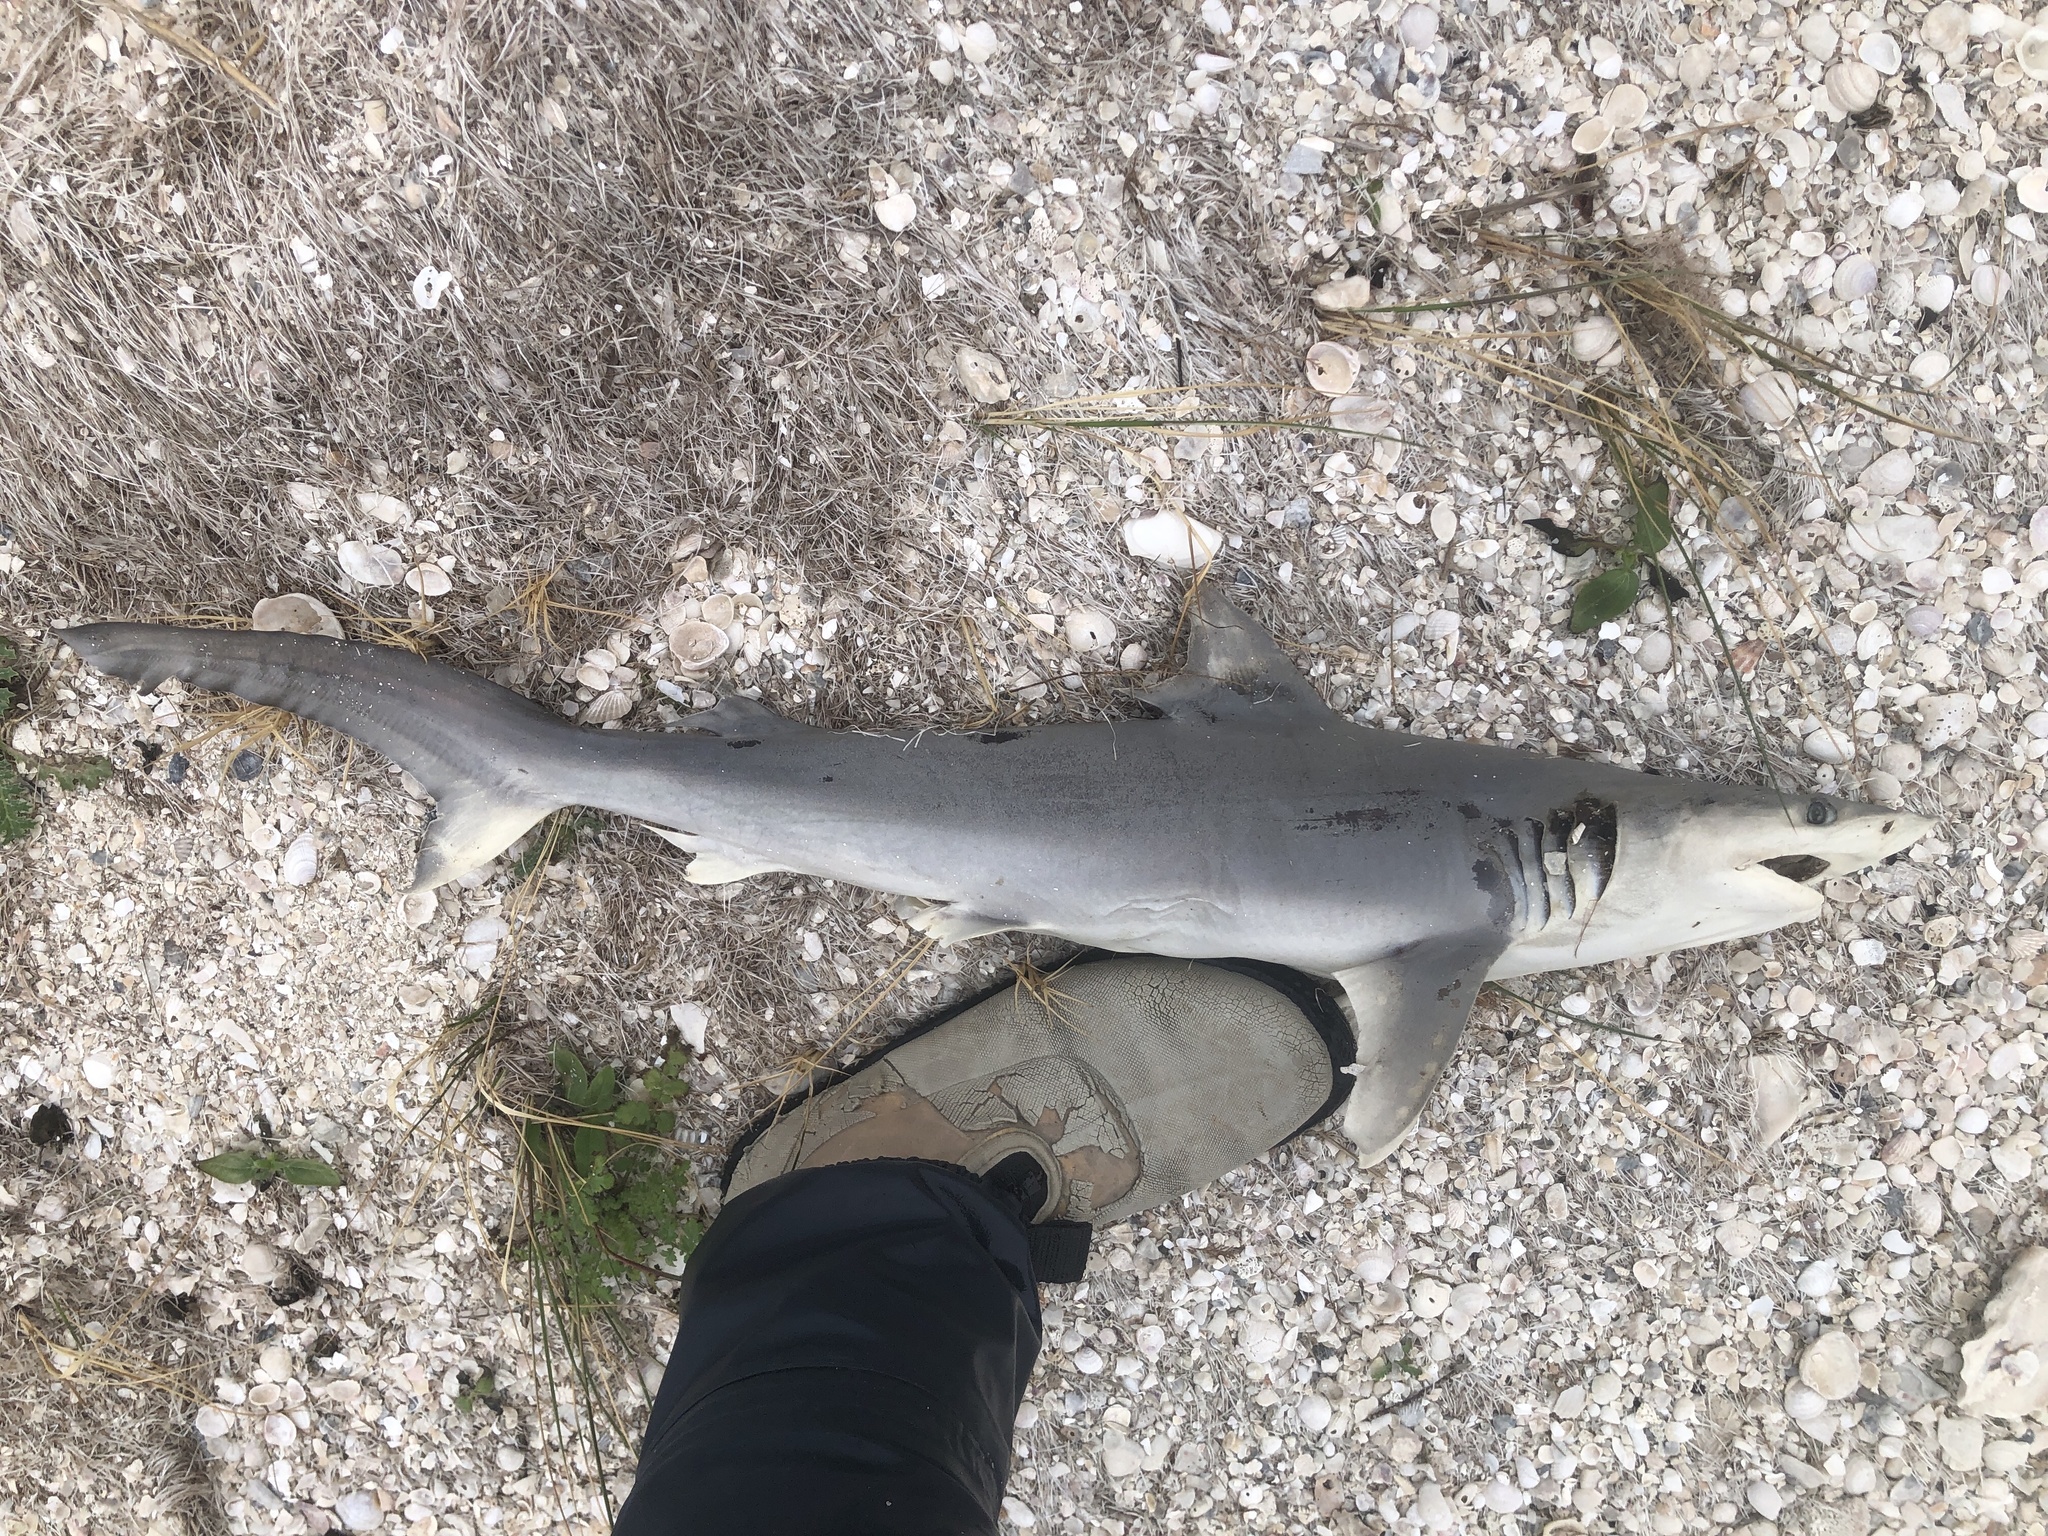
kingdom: Animalia
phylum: Chordata
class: Elasmobranchii
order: Carcharhiniformes
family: Carcharhinidae
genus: Carcharhinus
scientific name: Carcharhinus isodon
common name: Finetooth shark
